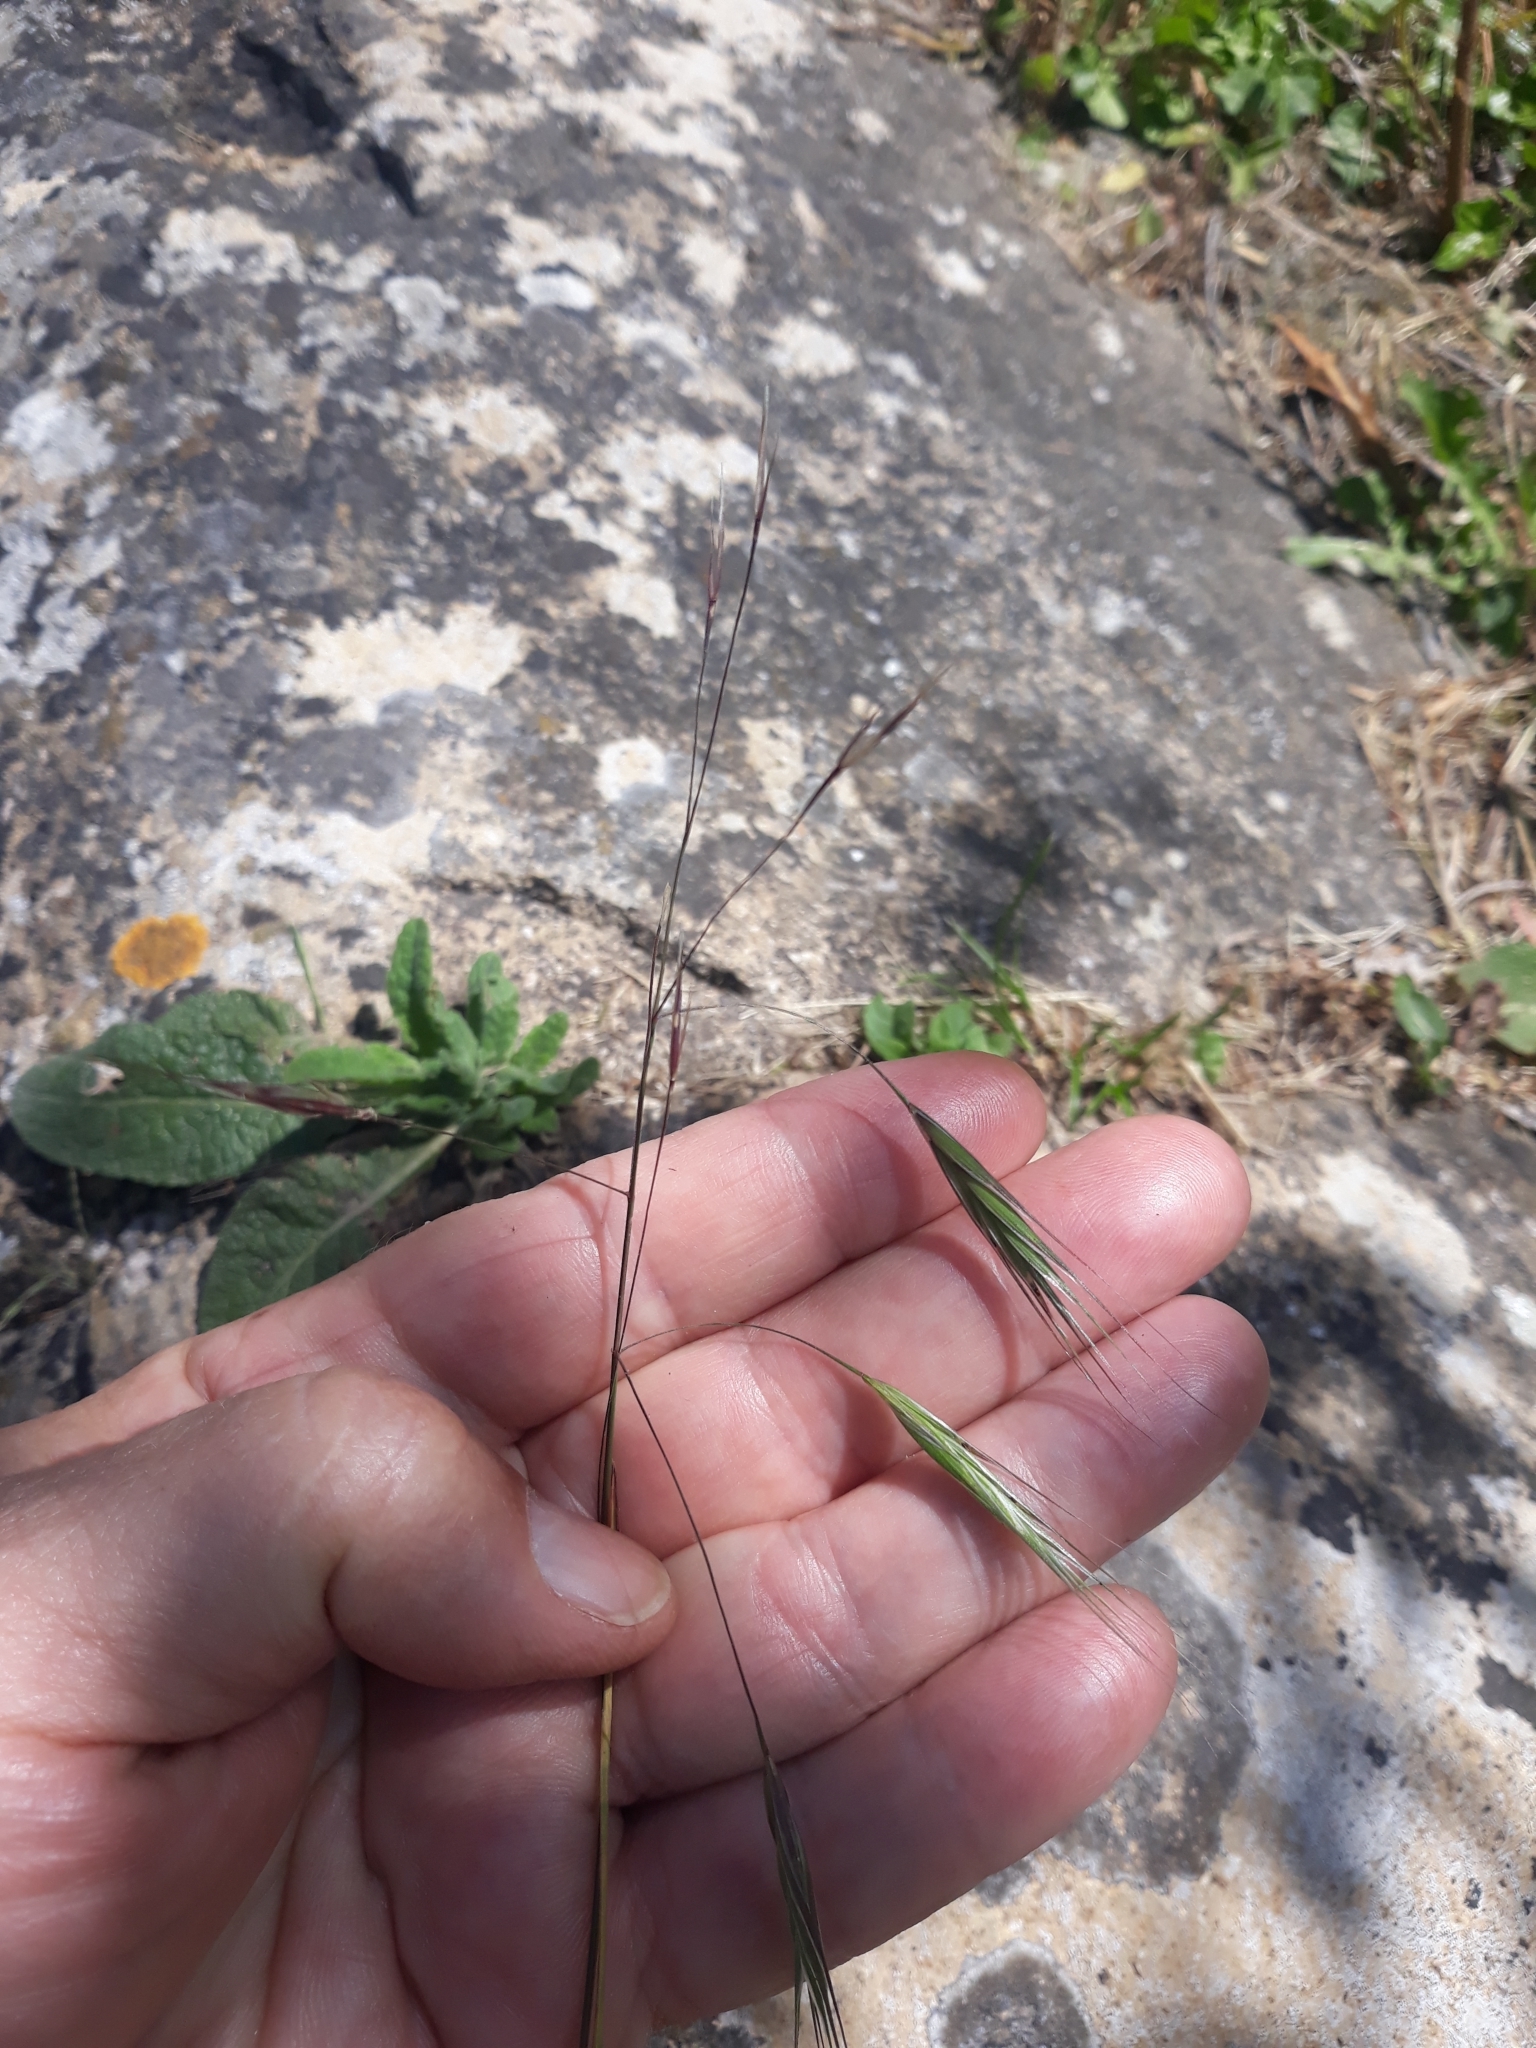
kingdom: Plantae
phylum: Tracheophyta
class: Liliopsida
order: Poales
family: Poaceae
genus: Bromus
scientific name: Bromus sterilis
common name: Poverty brome
